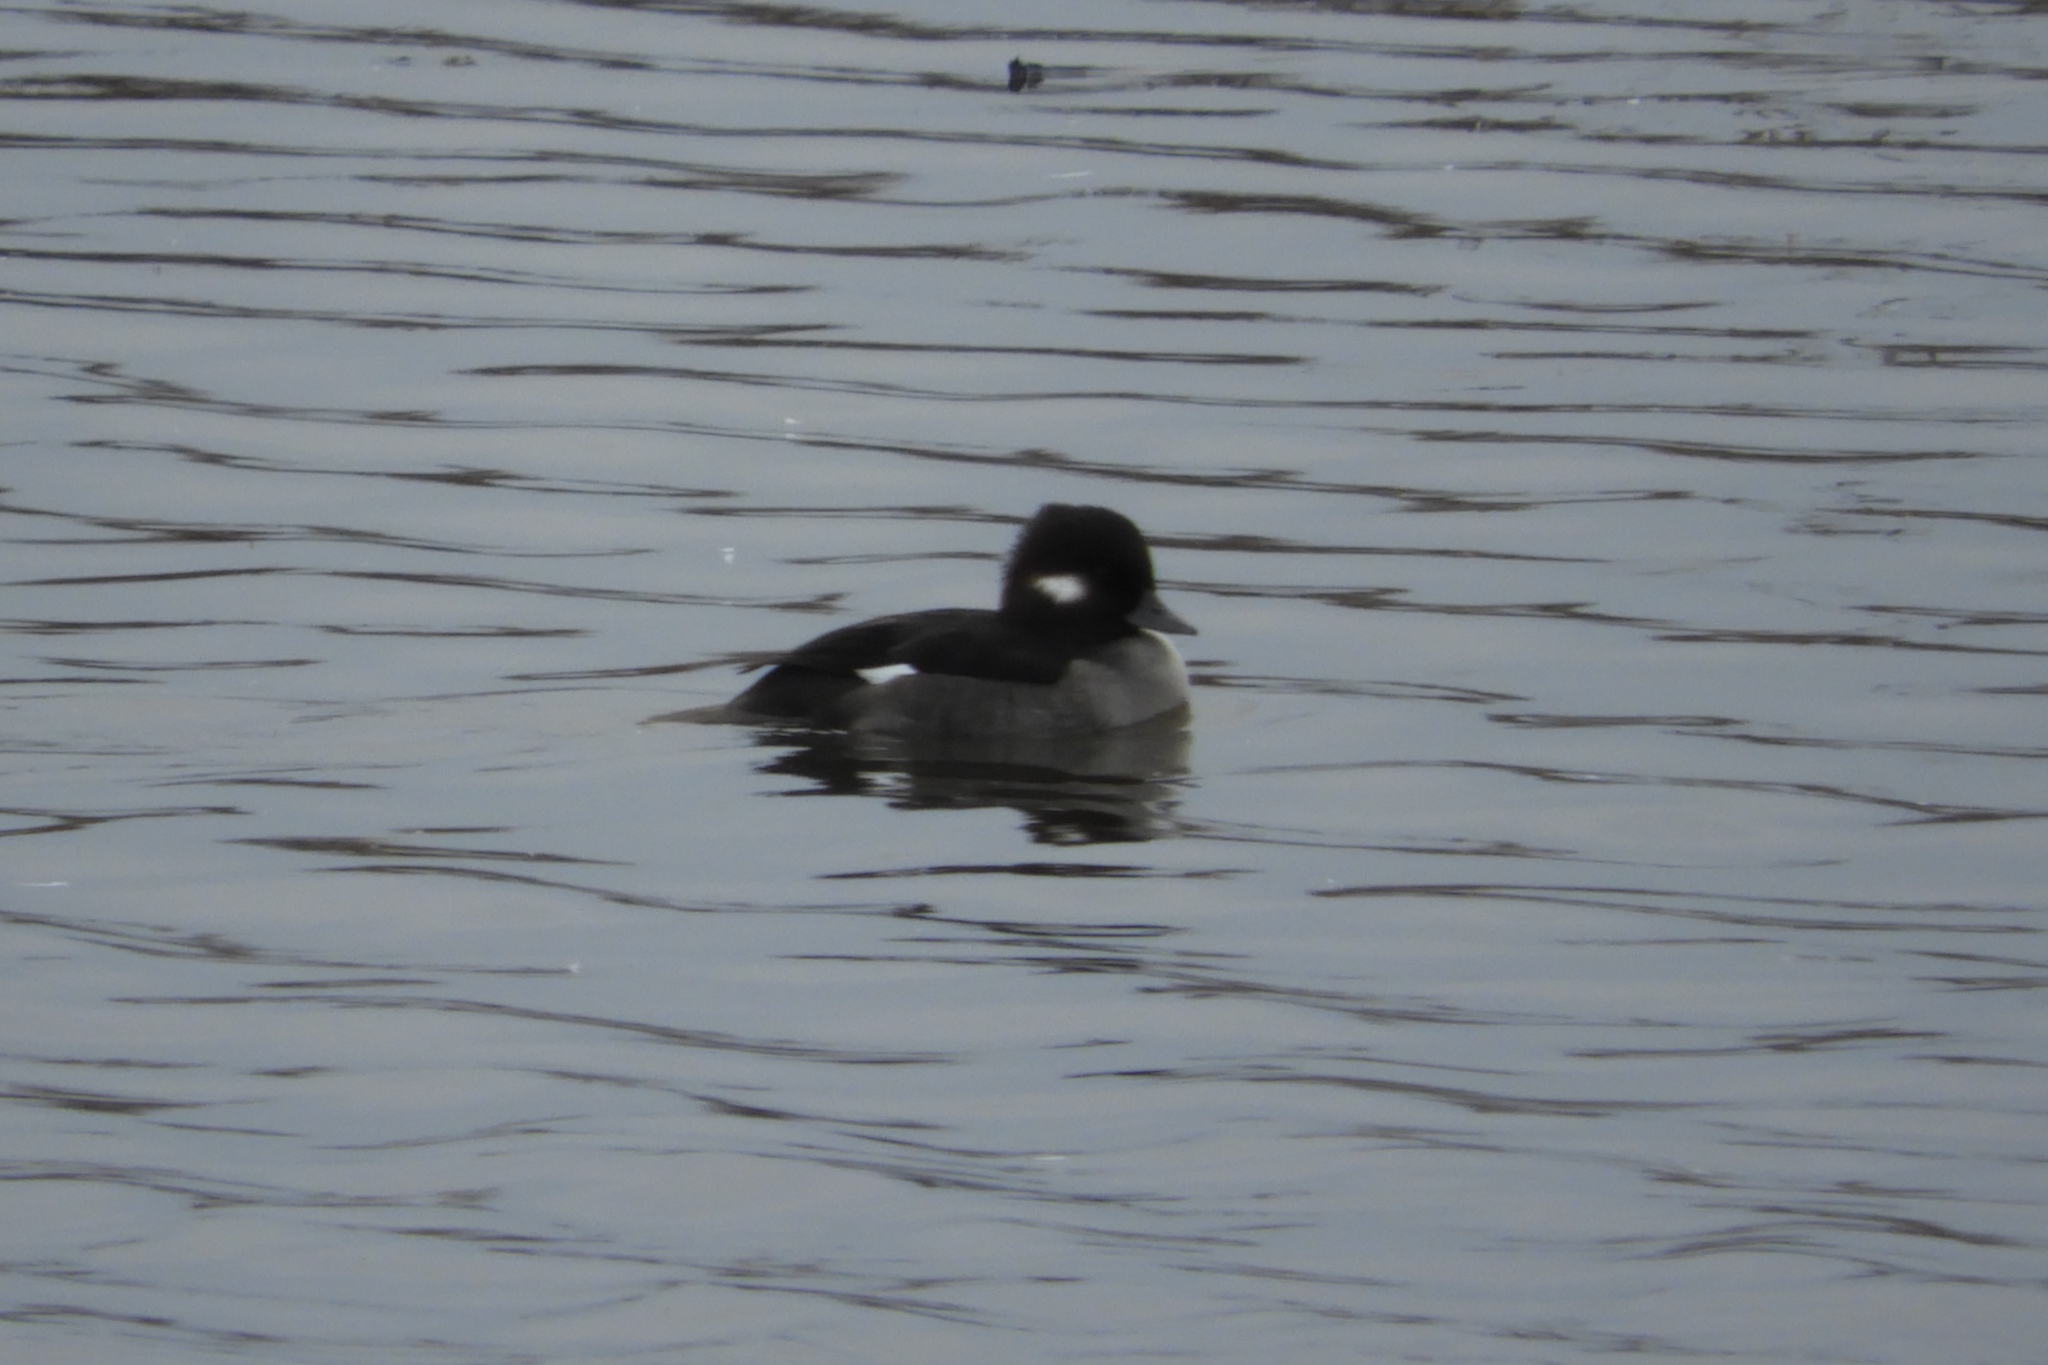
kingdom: Animalia
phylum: Chordata
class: Aves
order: Anseriformes
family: Anatidae
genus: Bucephala
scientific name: Bucephala albeola
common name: Bufflehead
